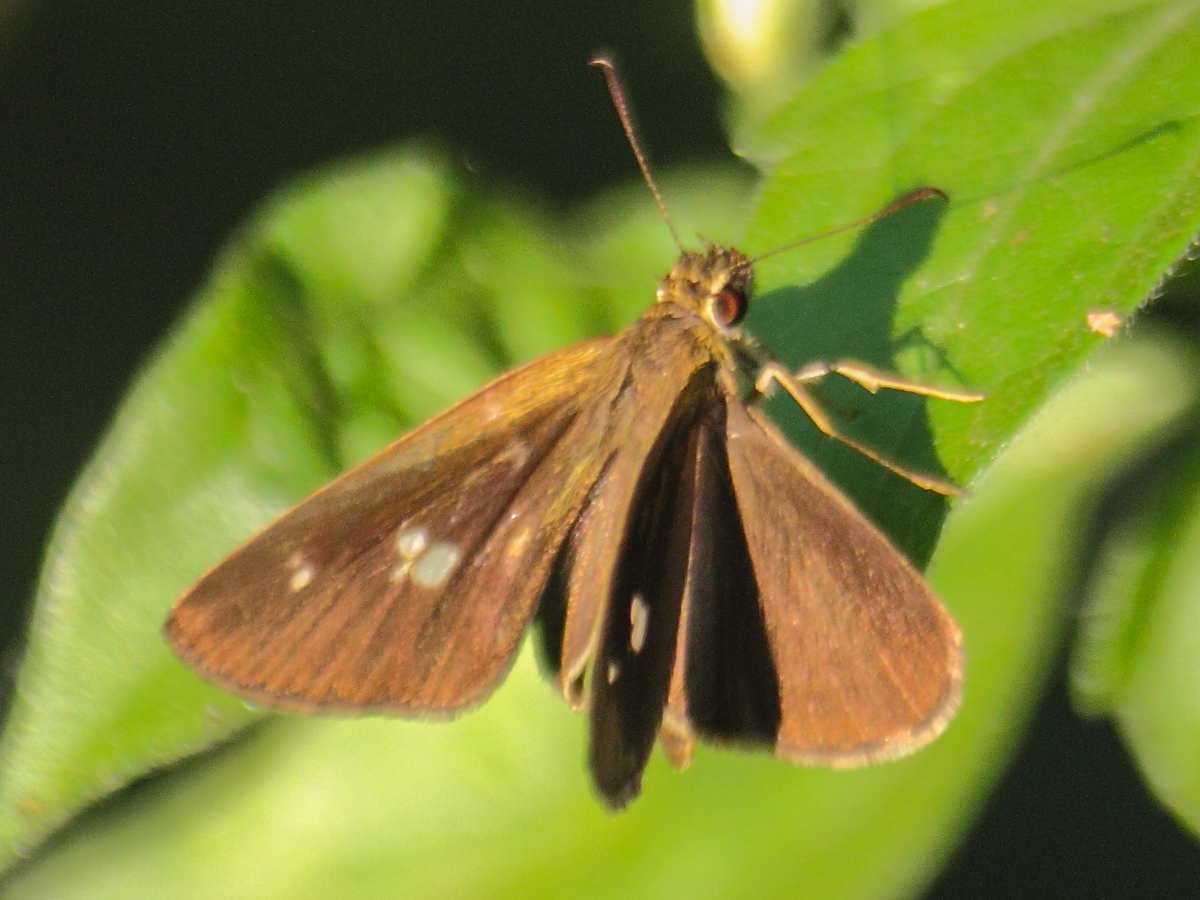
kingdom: Animalia
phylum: Arthropoda
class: Insecta
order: Lepidoptera
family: Hesperiidae
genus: Suada
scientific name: Suada swerga
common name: Grass bob
